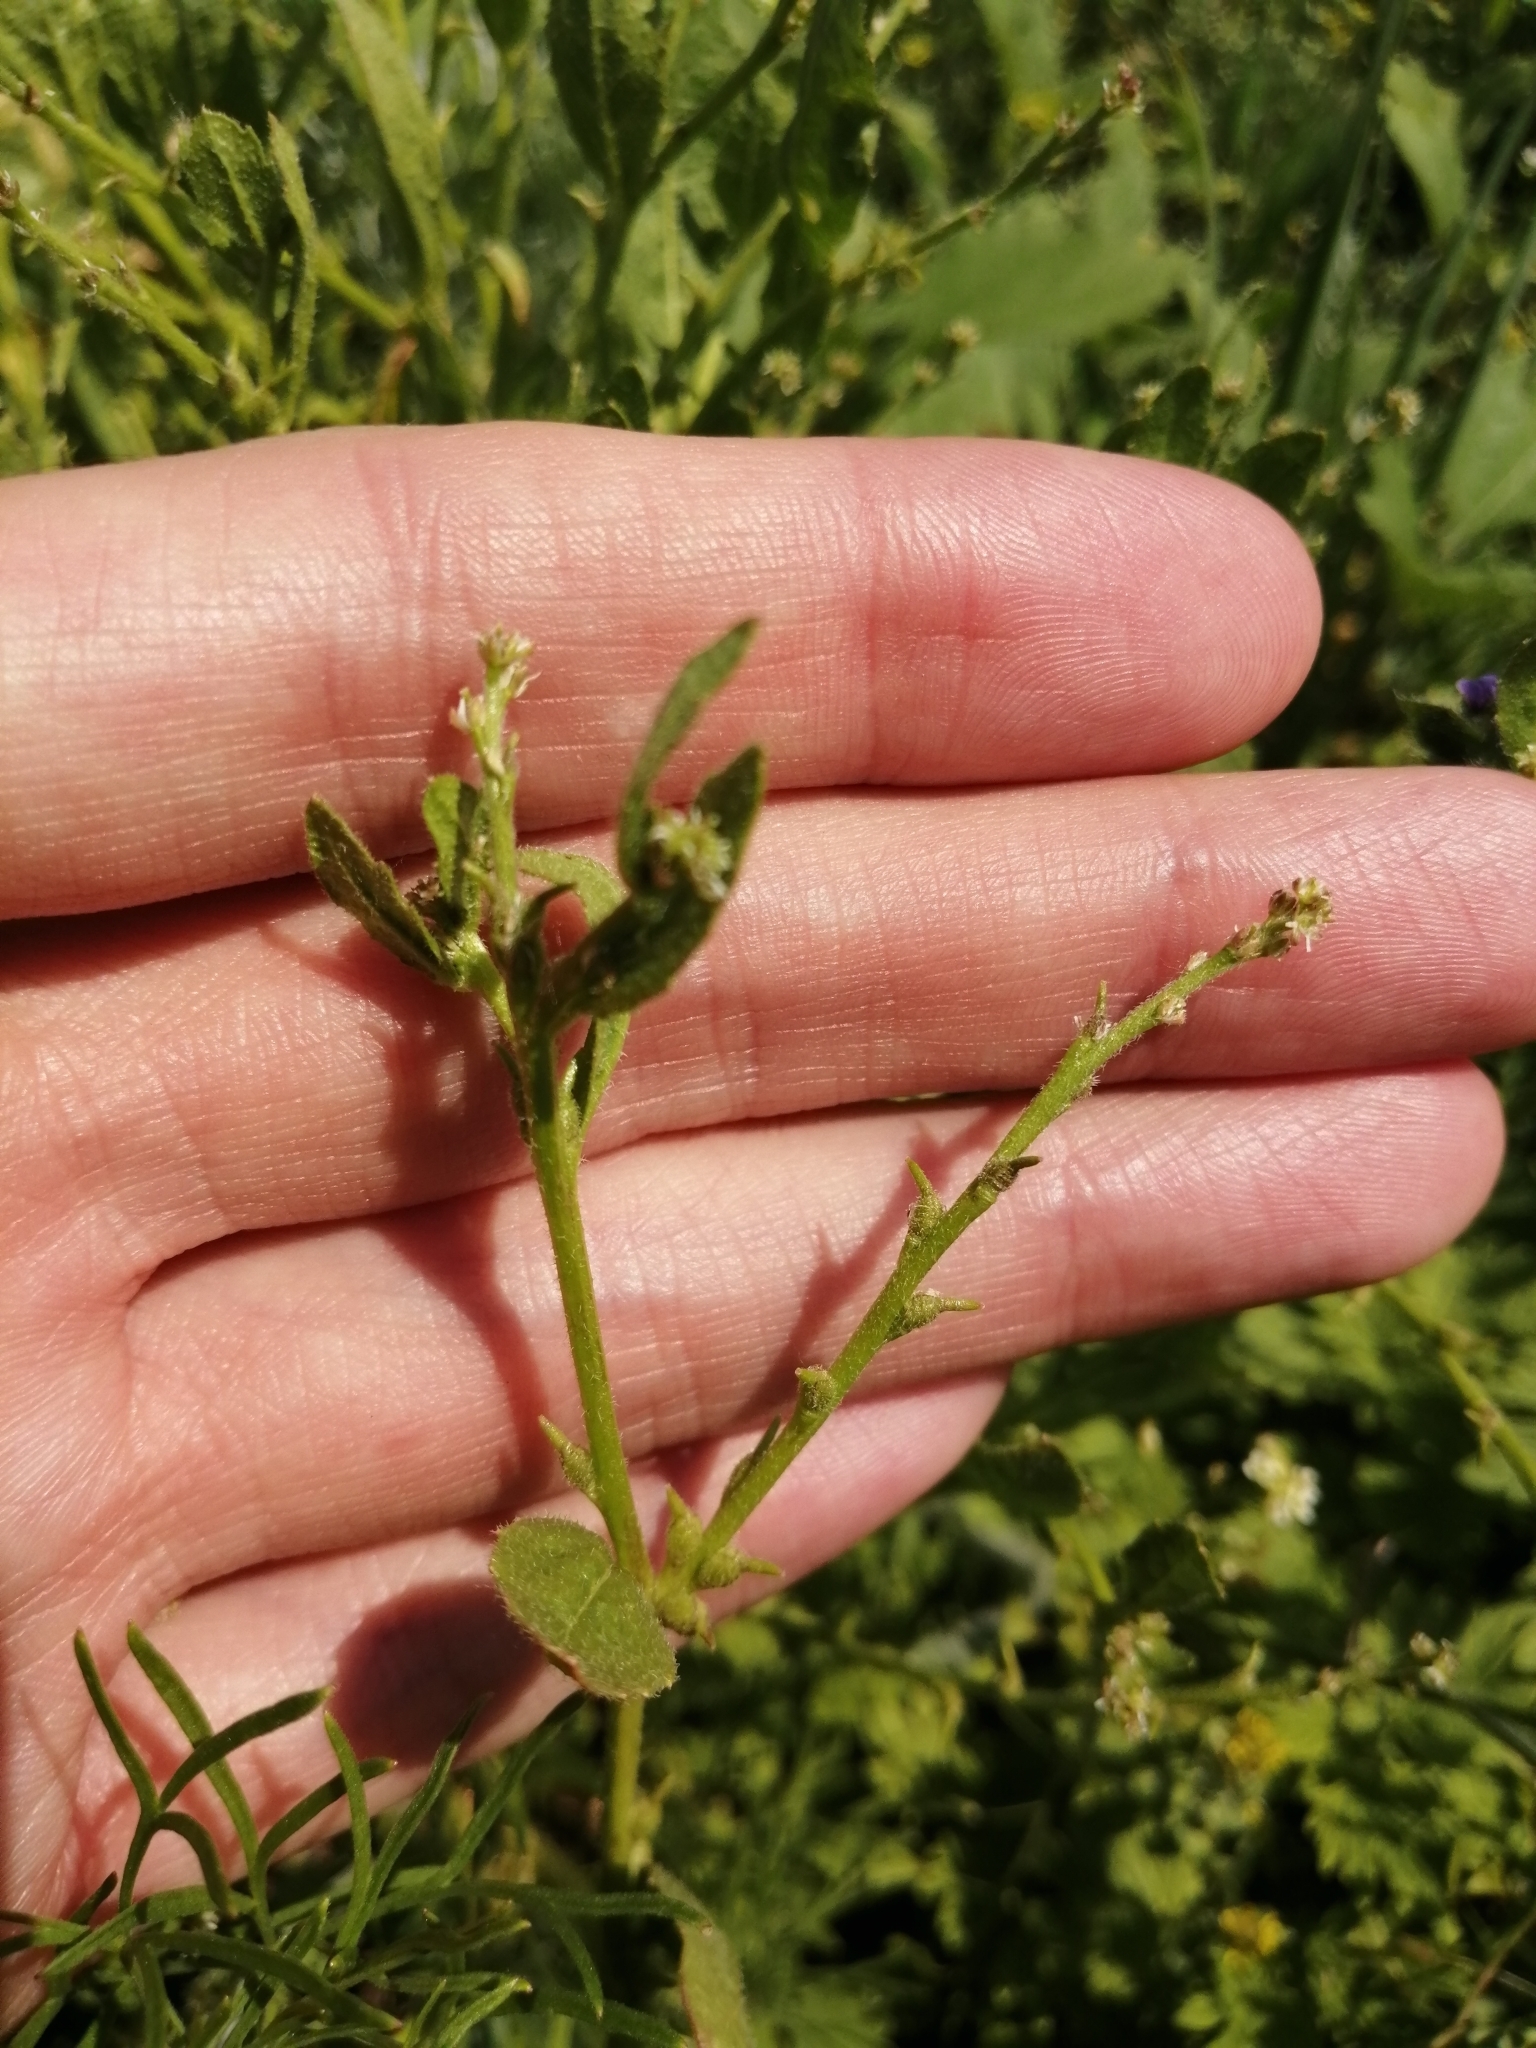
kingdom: Plantae
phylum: Tracheophyta
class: Magnoliopsida
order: Brassicales
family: Brassicaceae
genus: Euclidium
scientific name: Euclidium syriacum
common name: Syrian mustard
